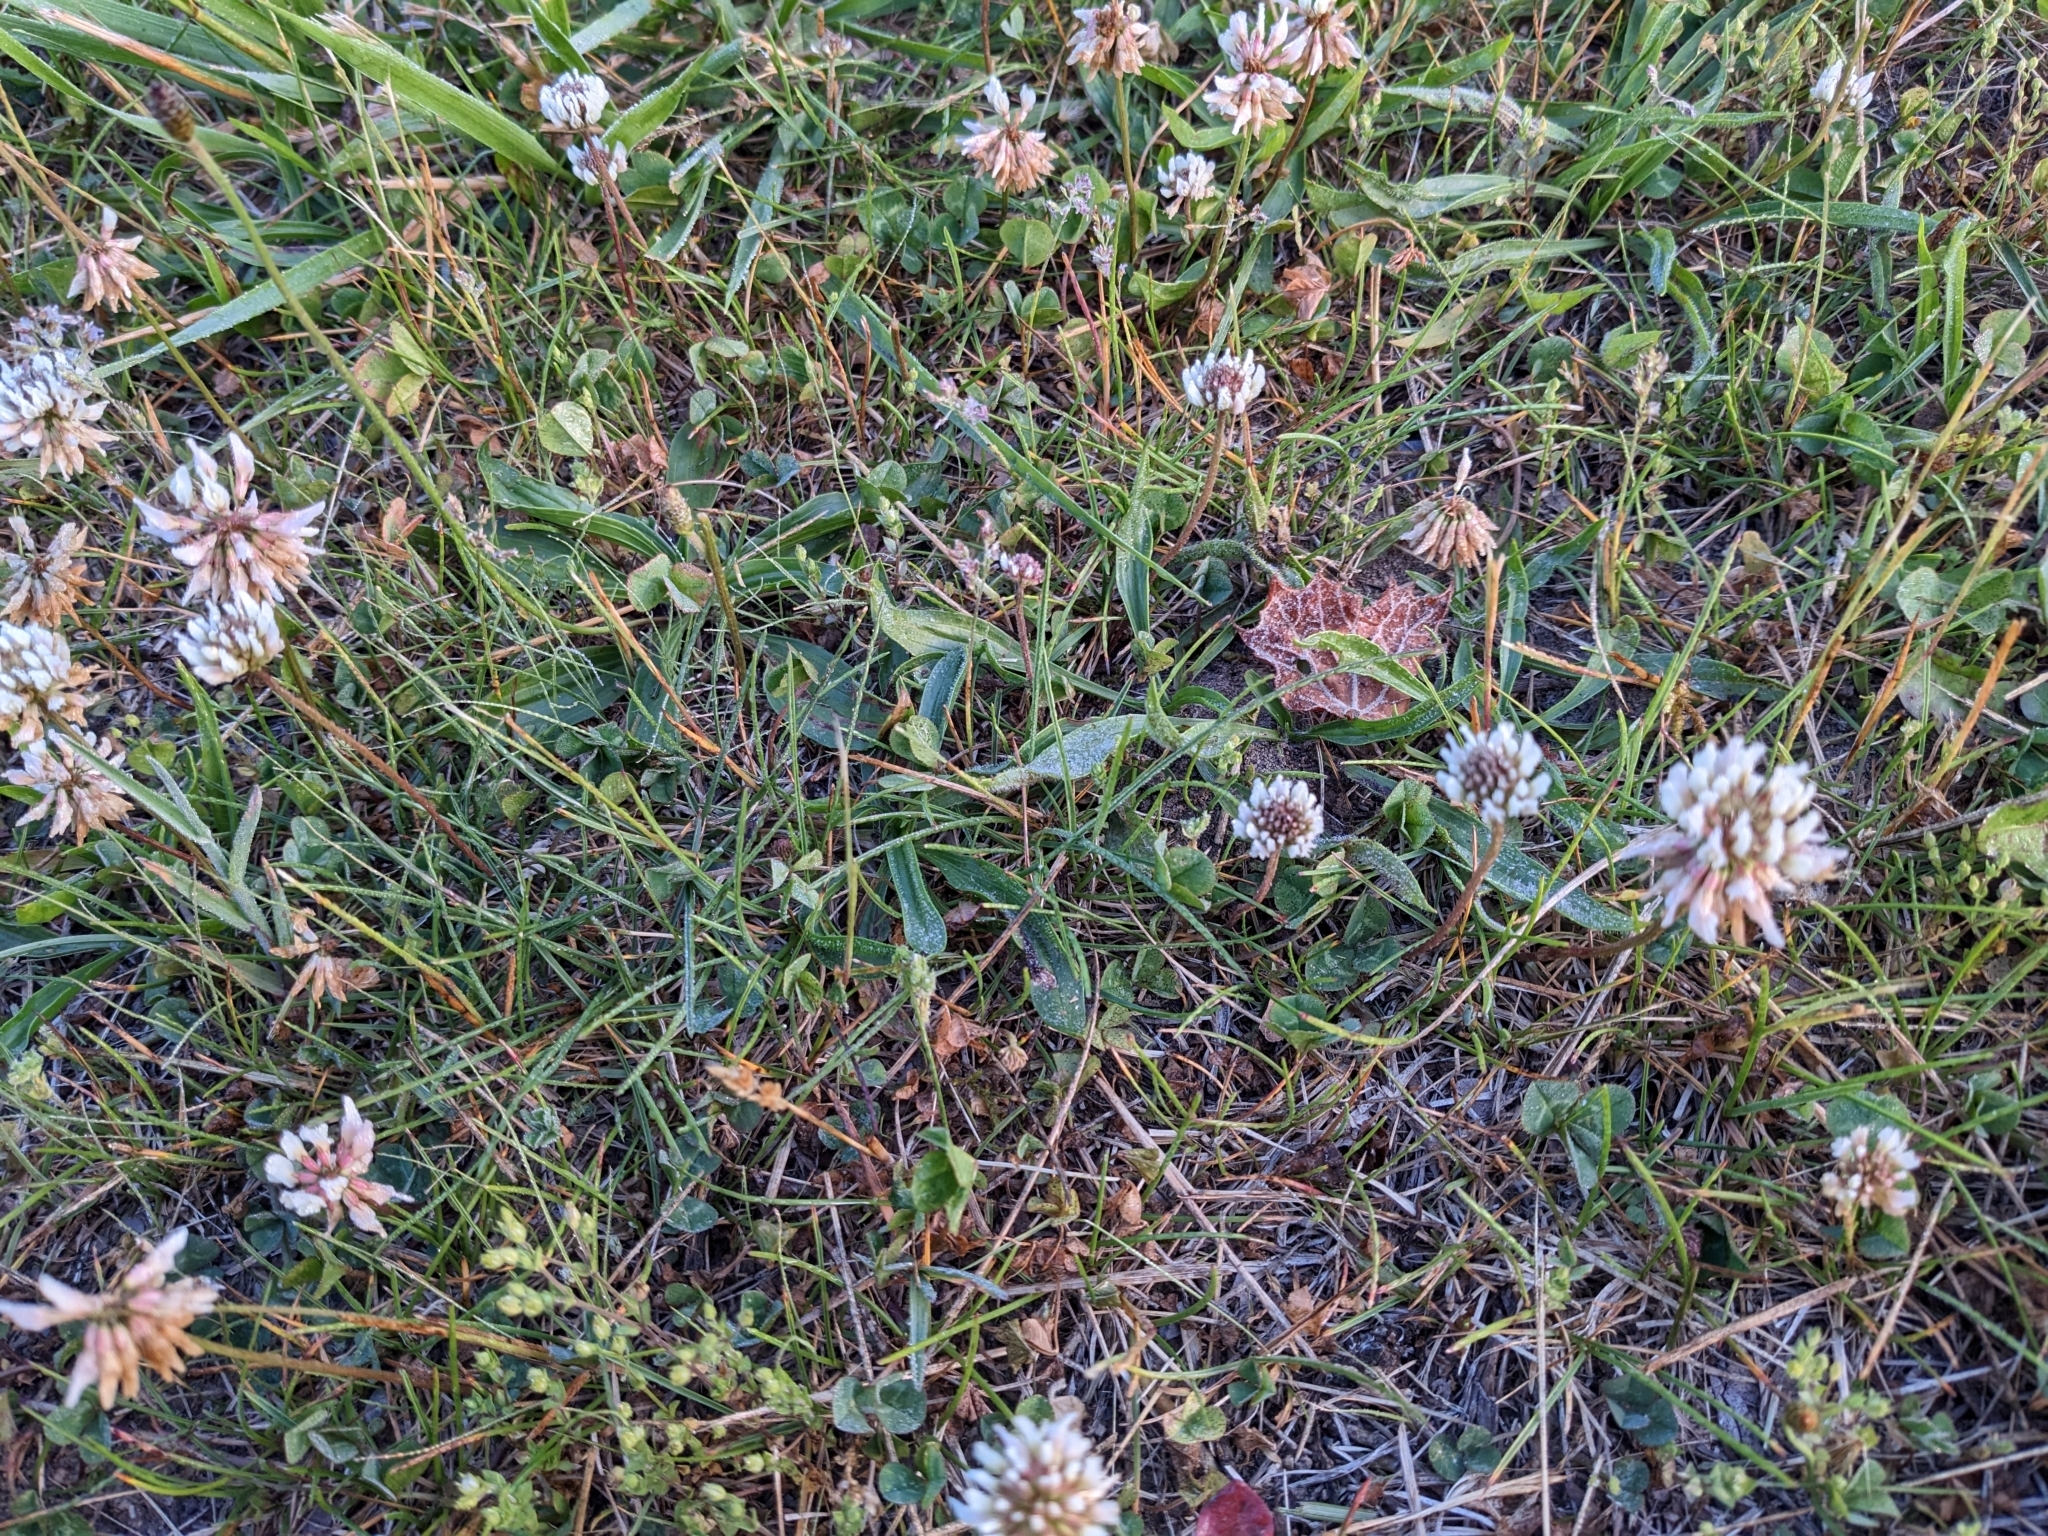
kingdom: Plantae
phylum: Tracheophyta
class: Magnoliopsida
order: Fabales
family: Fabaceae
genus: Trifolium
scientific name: Trifolium repens
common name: White clover
